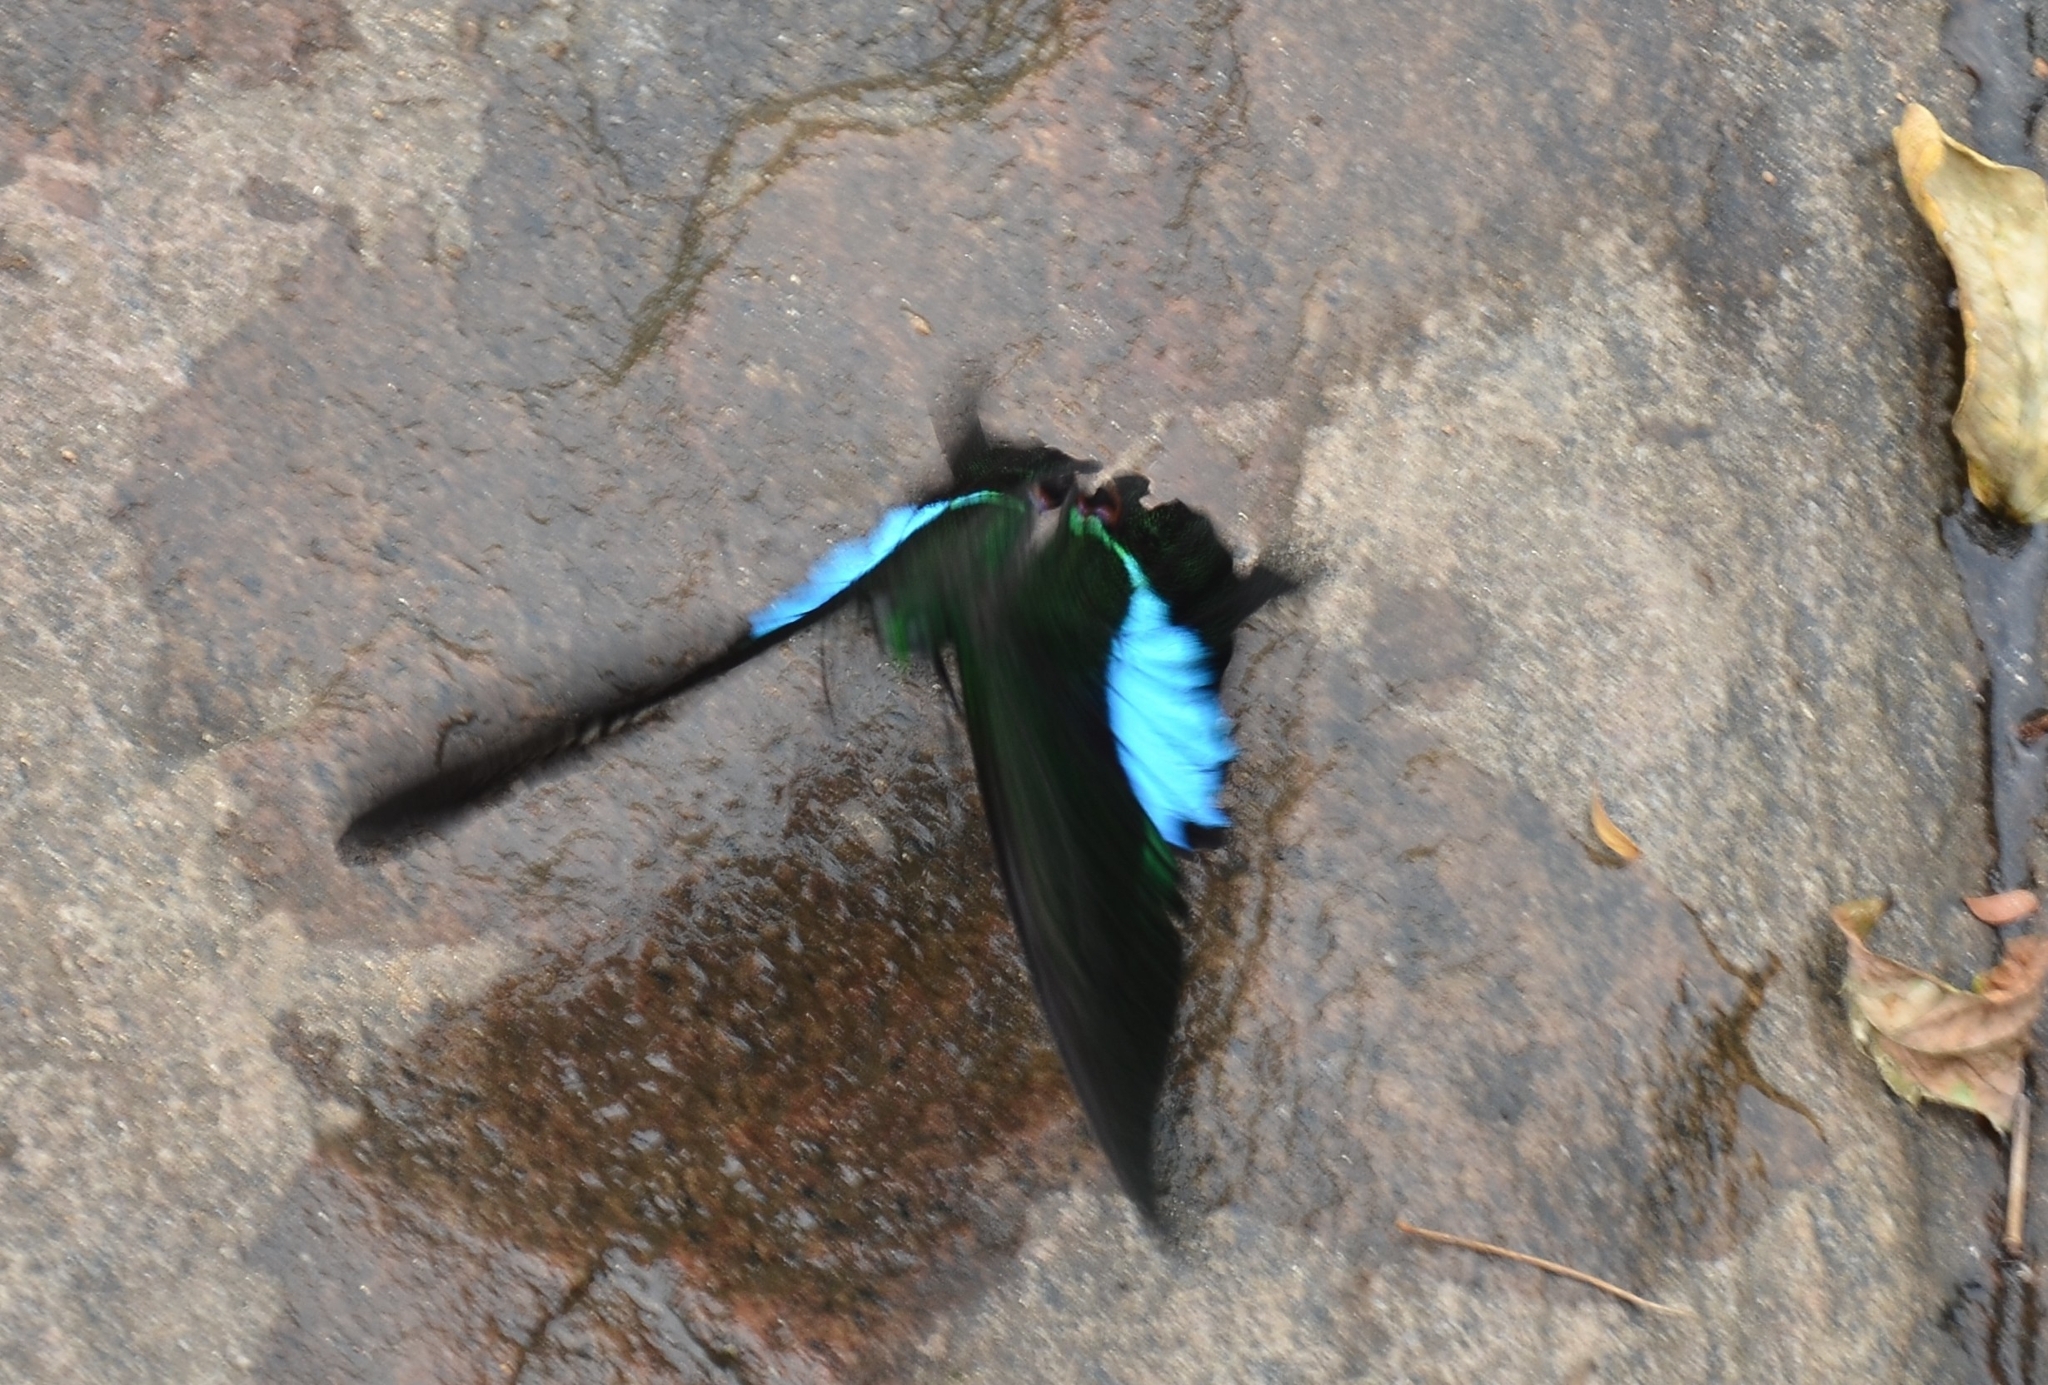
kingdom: Animalia
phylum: Arthropoda
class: Insecta
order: Lepidoptera
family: Papilionidae
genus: Papilio
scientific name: Papilio paris
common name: Paris peacock
